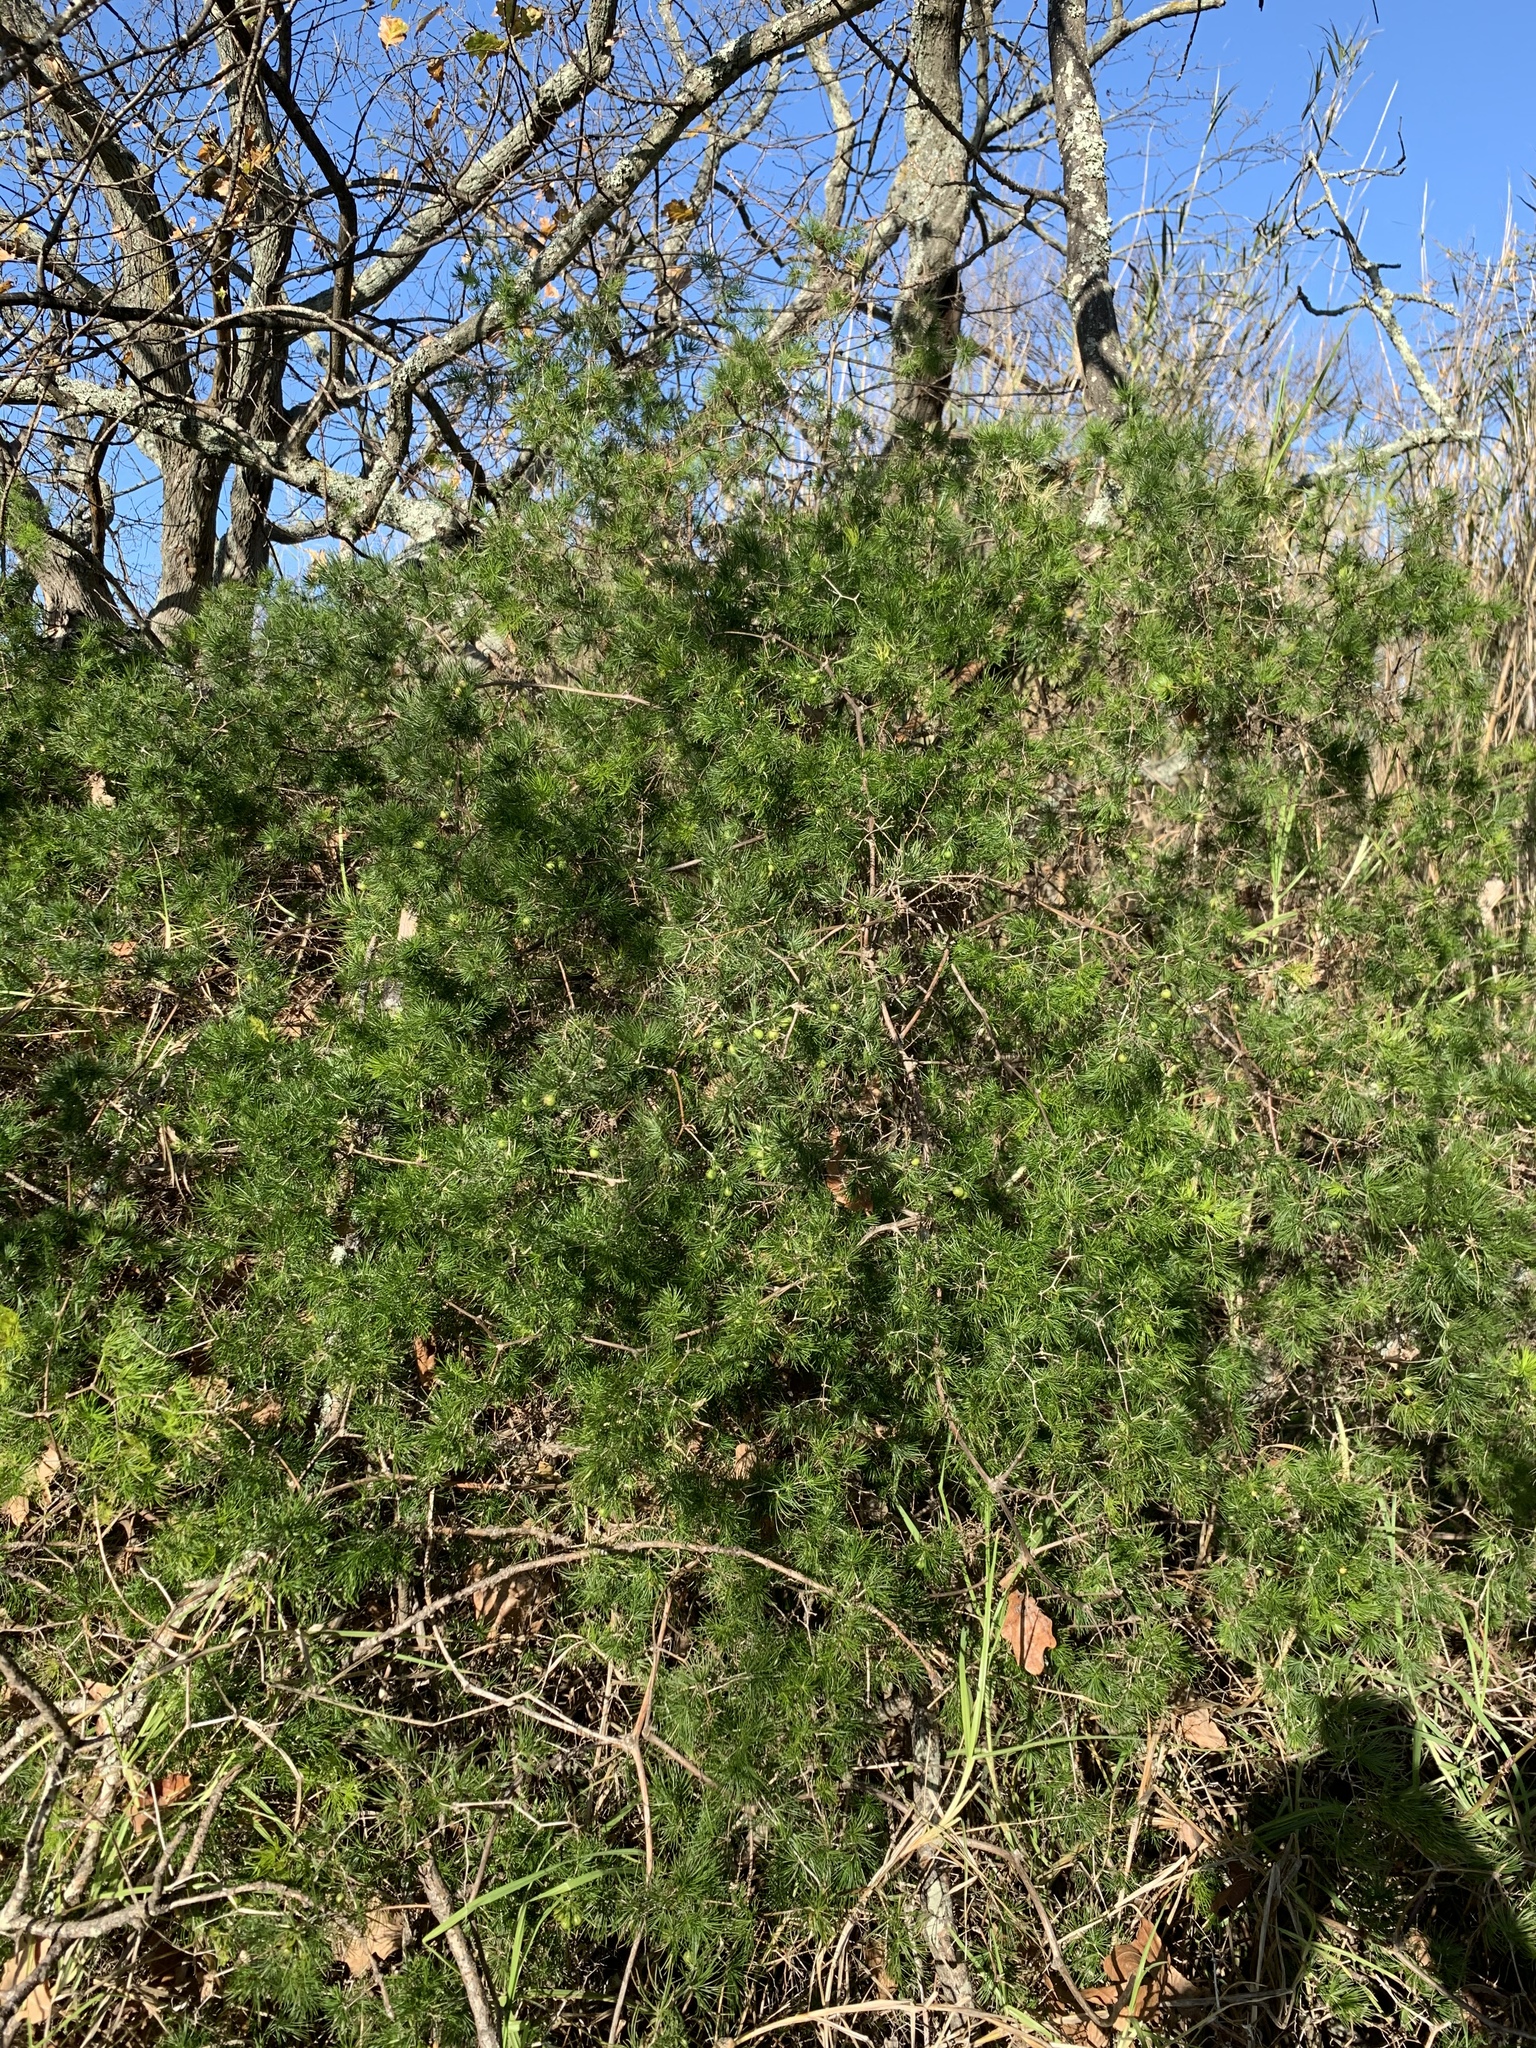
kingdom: Plantae
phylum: Tracheophyta
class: Liliopsida
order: Asparagales
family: Asparagaceae
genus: Asparagus
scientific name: Asparagus retrofractus
